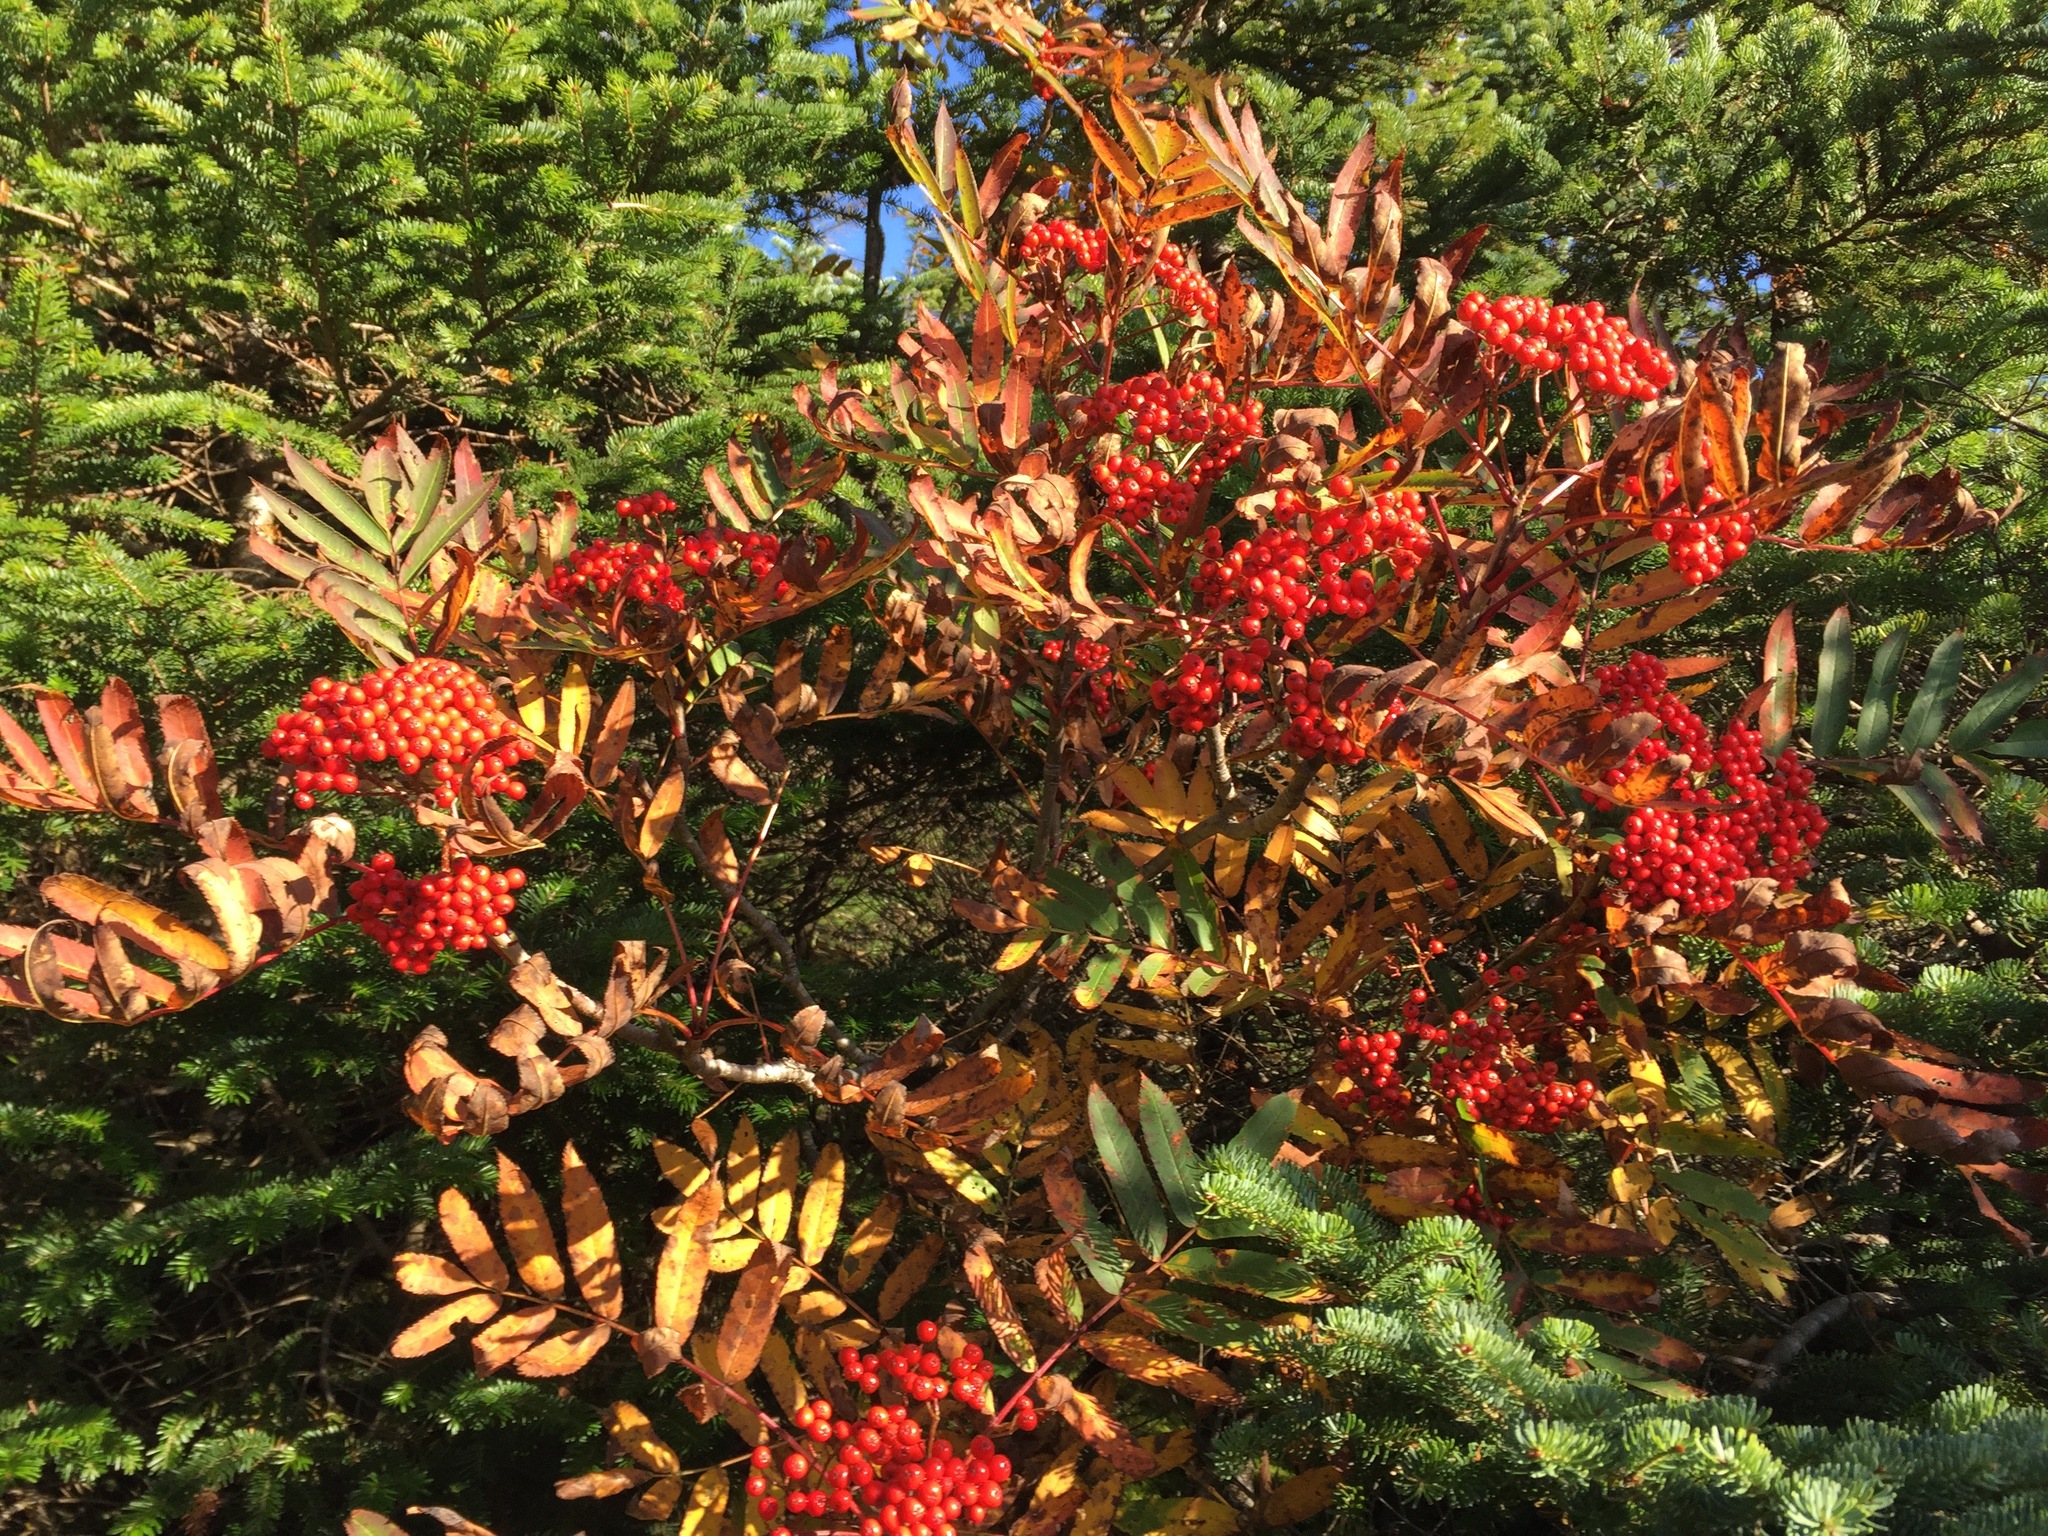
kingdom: Plantae
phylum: Tracheophyta
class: Magnoliopsida
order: Rosales
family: Rosaceae
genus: Sorbus
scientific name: Sorbus americana
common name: American mountain-ash
